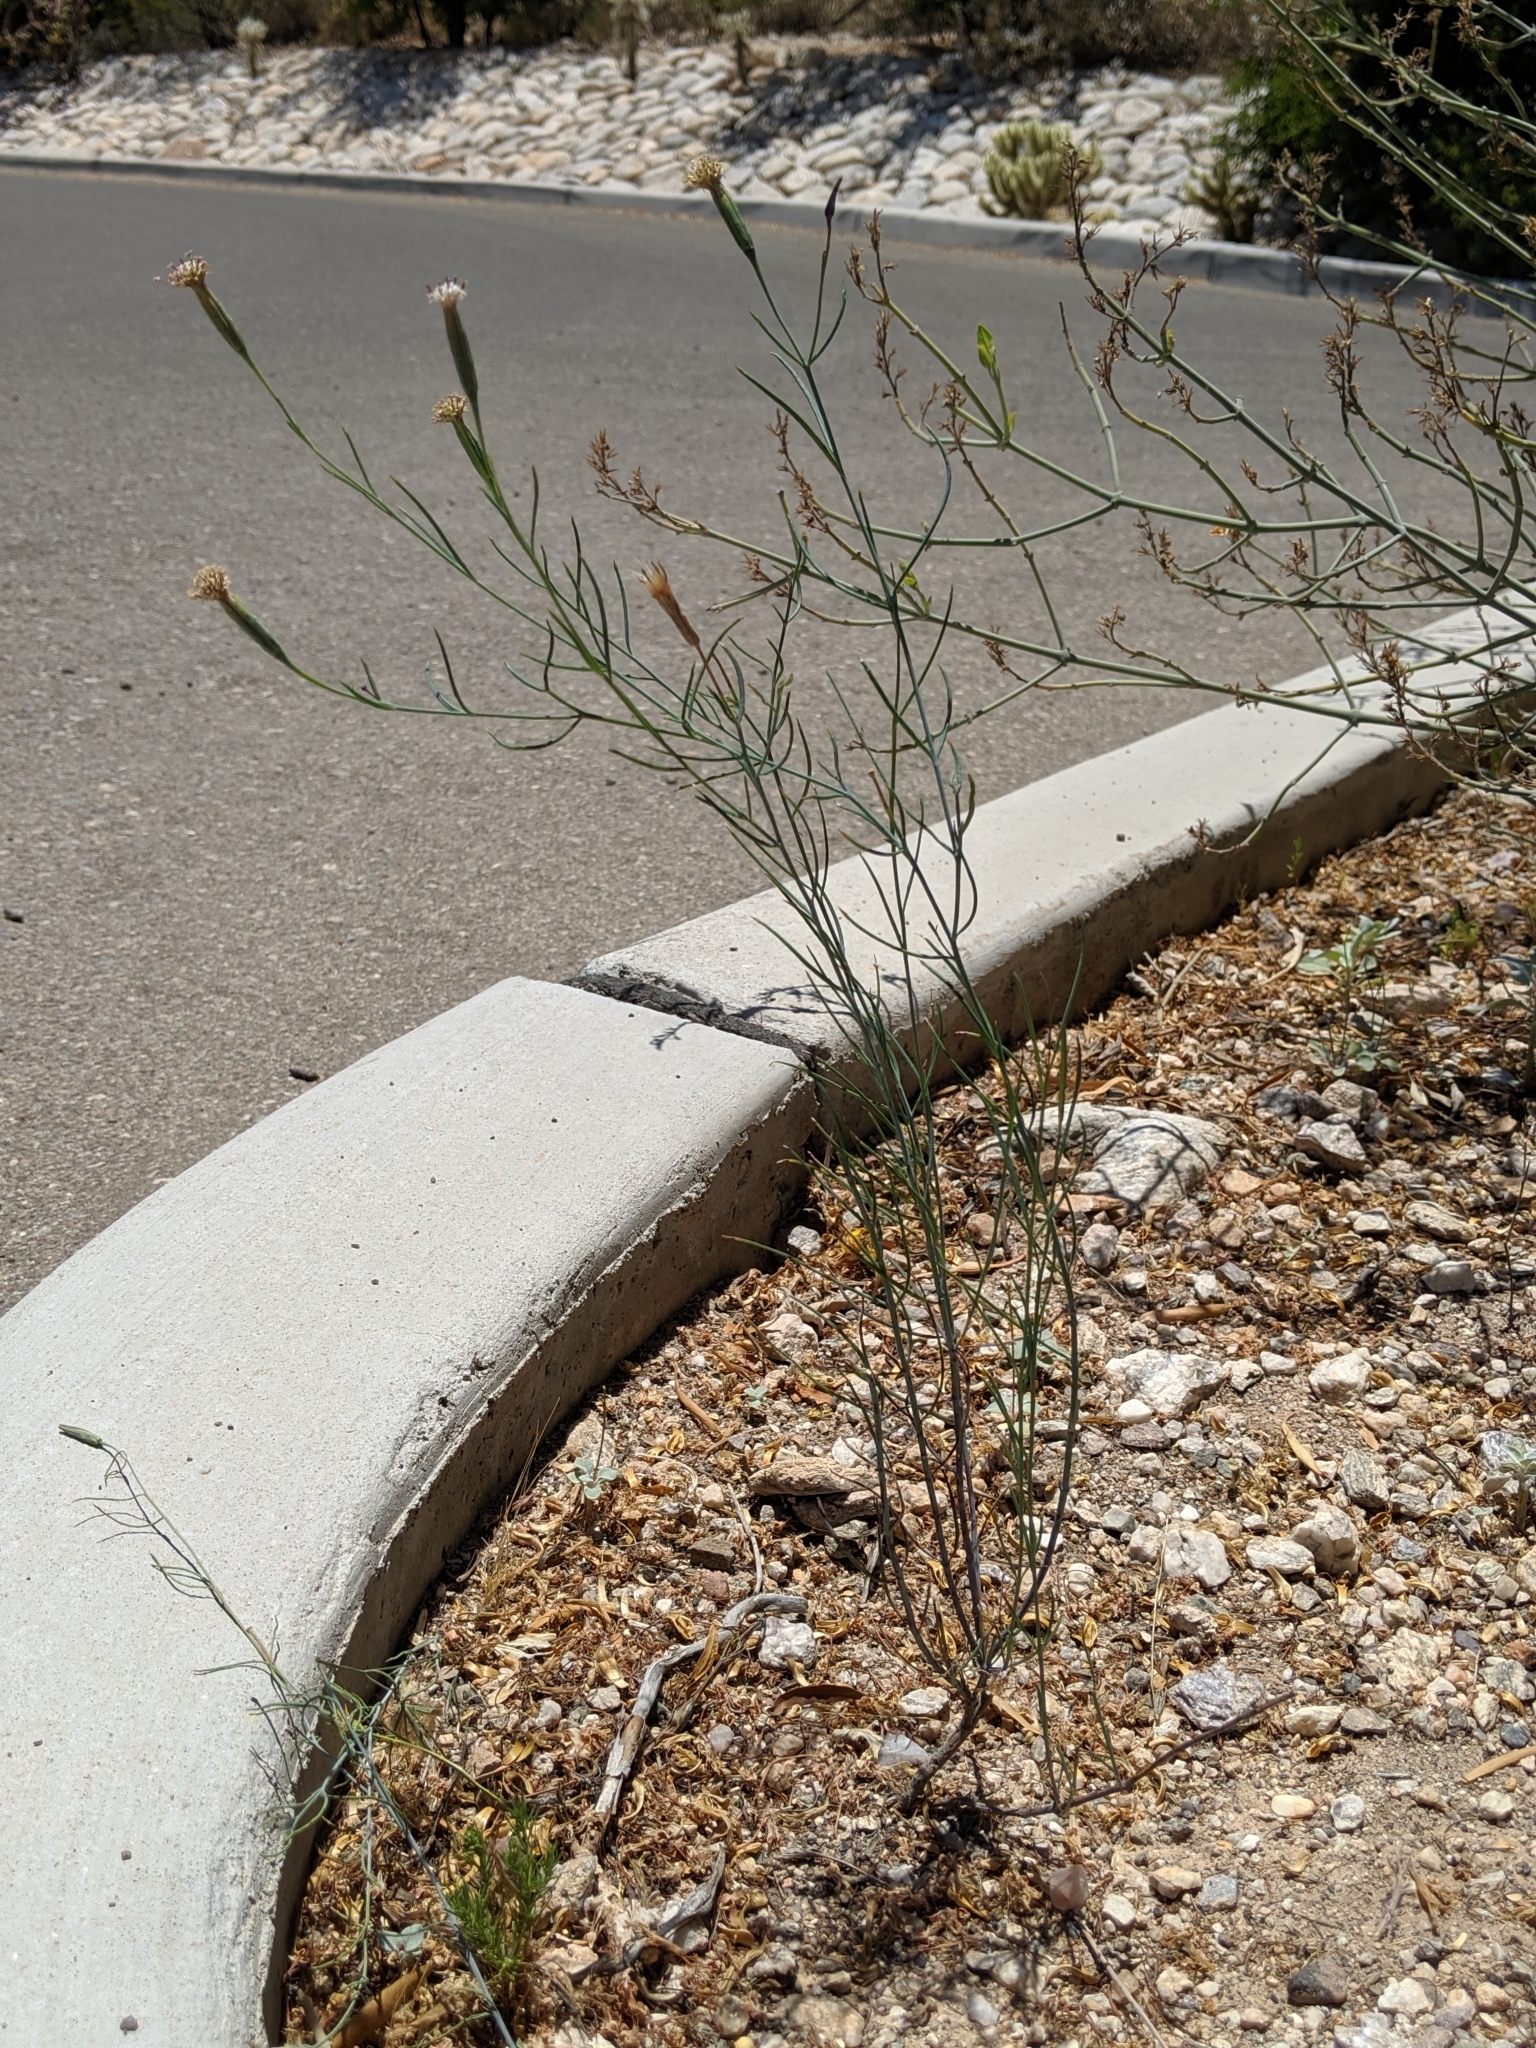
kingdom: Plantae
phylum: Tracheophyta
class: Magnoliopsida
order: Asterales
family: Asteraceae
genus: Porophyllum
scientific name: Porophyllum gracile
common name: Odora
